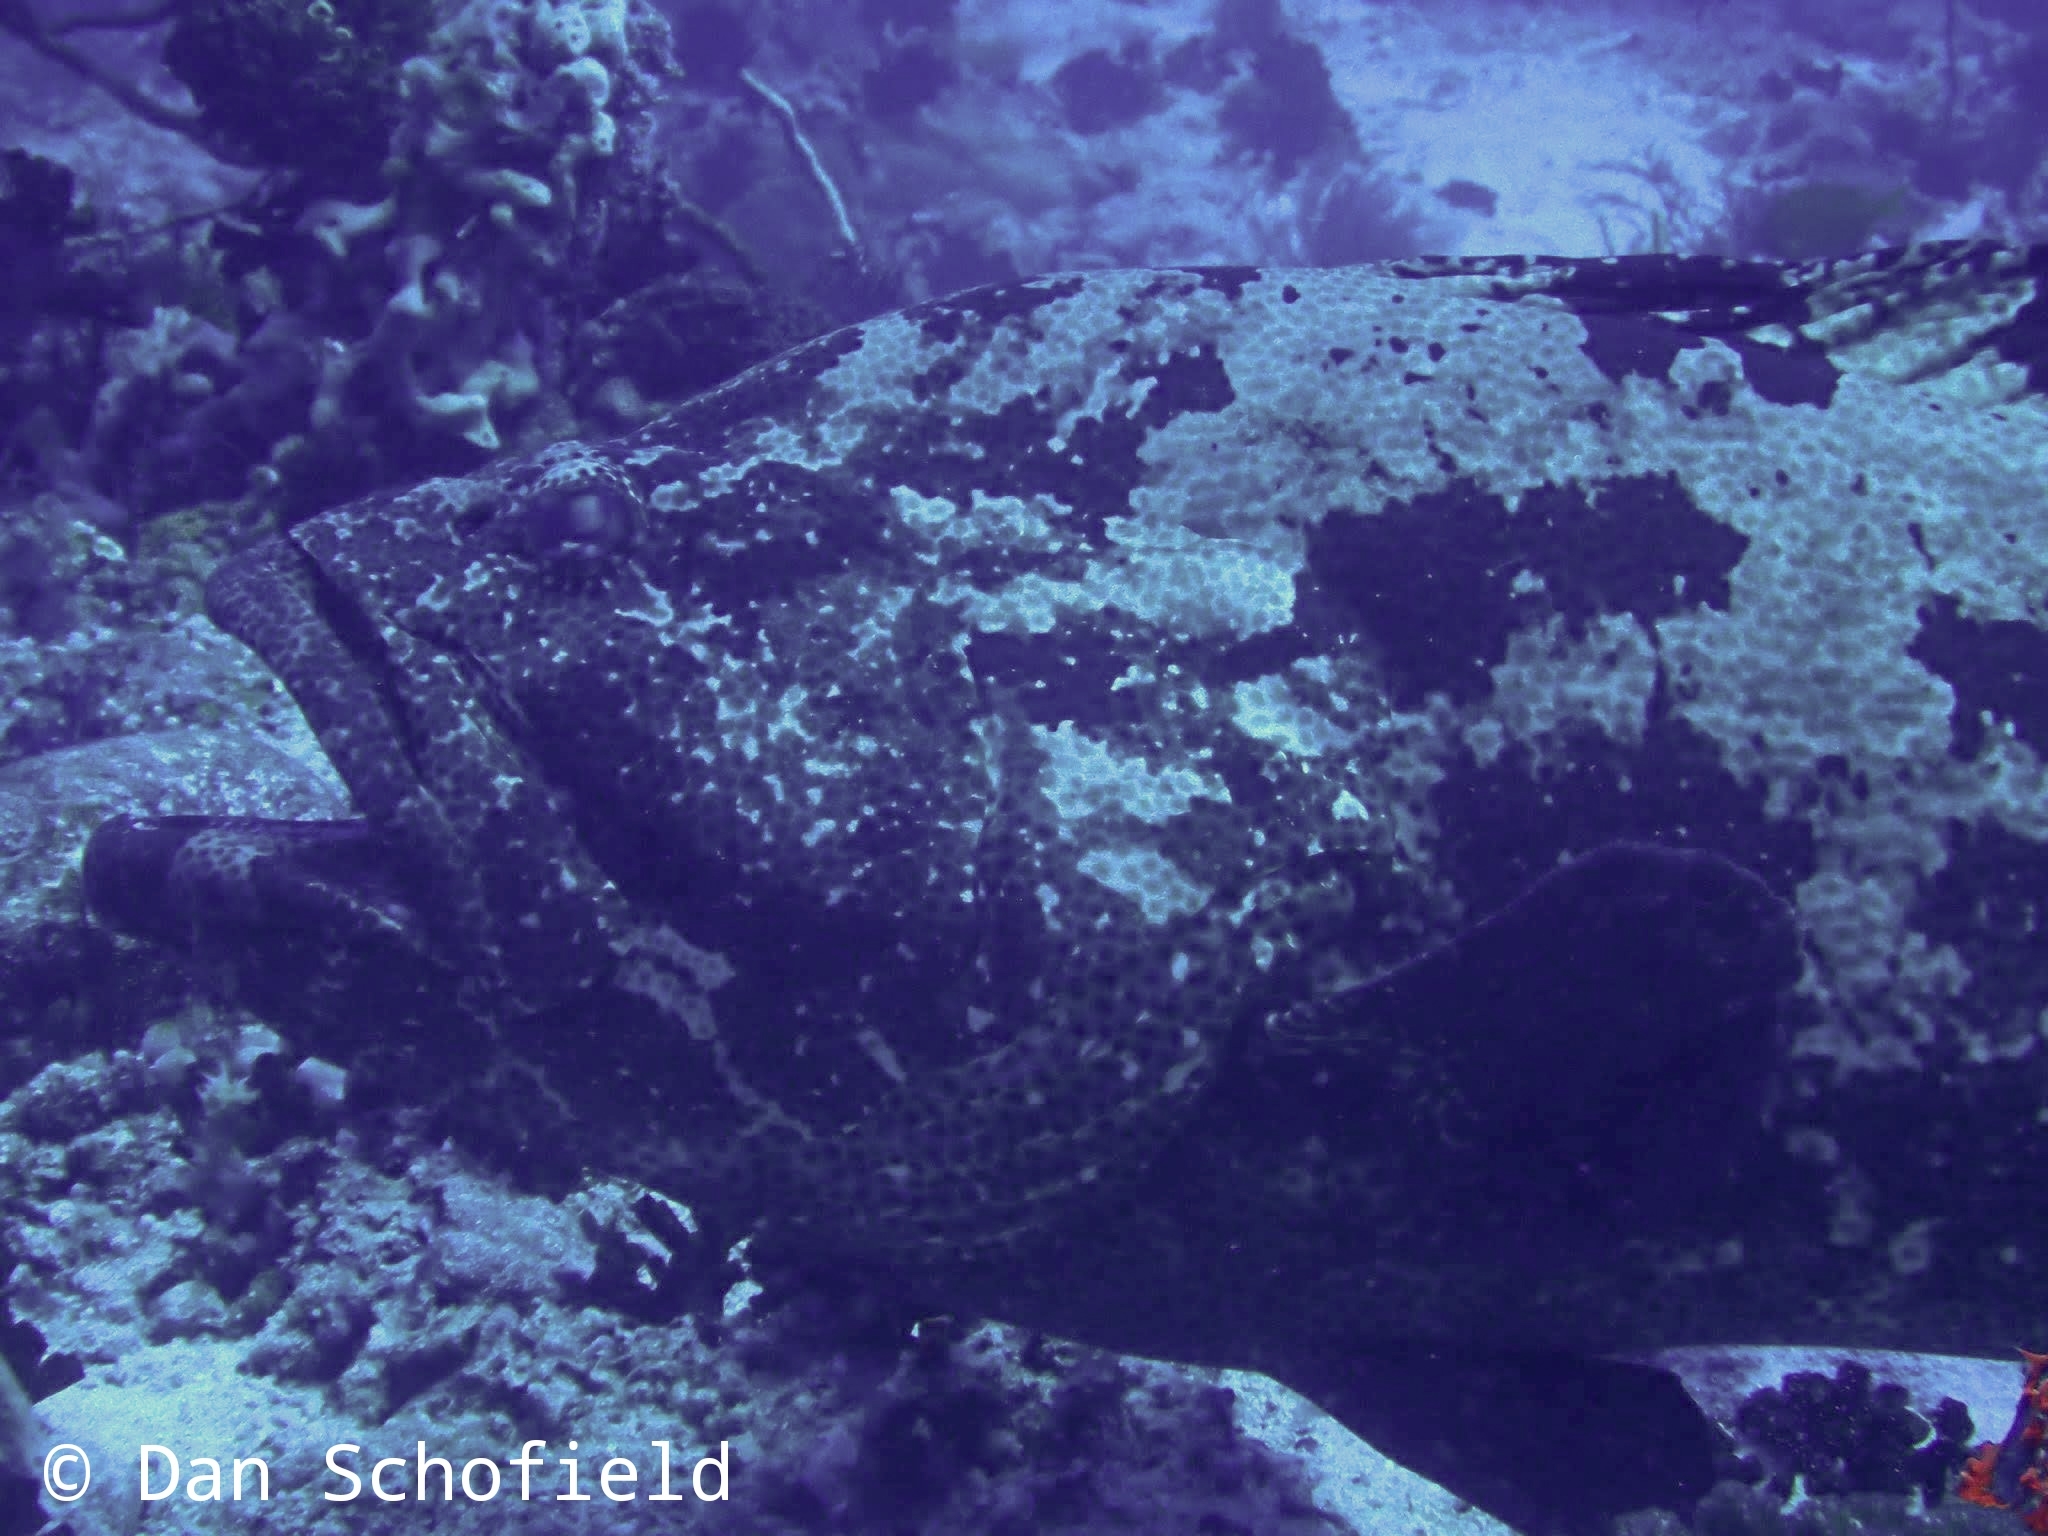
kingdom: Animalia
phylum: Chordata
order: Perciformes
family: Serranidae
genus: Epinephelus
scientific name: Epinephelus fuscoguttatus
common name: Brown-marbled grouper
